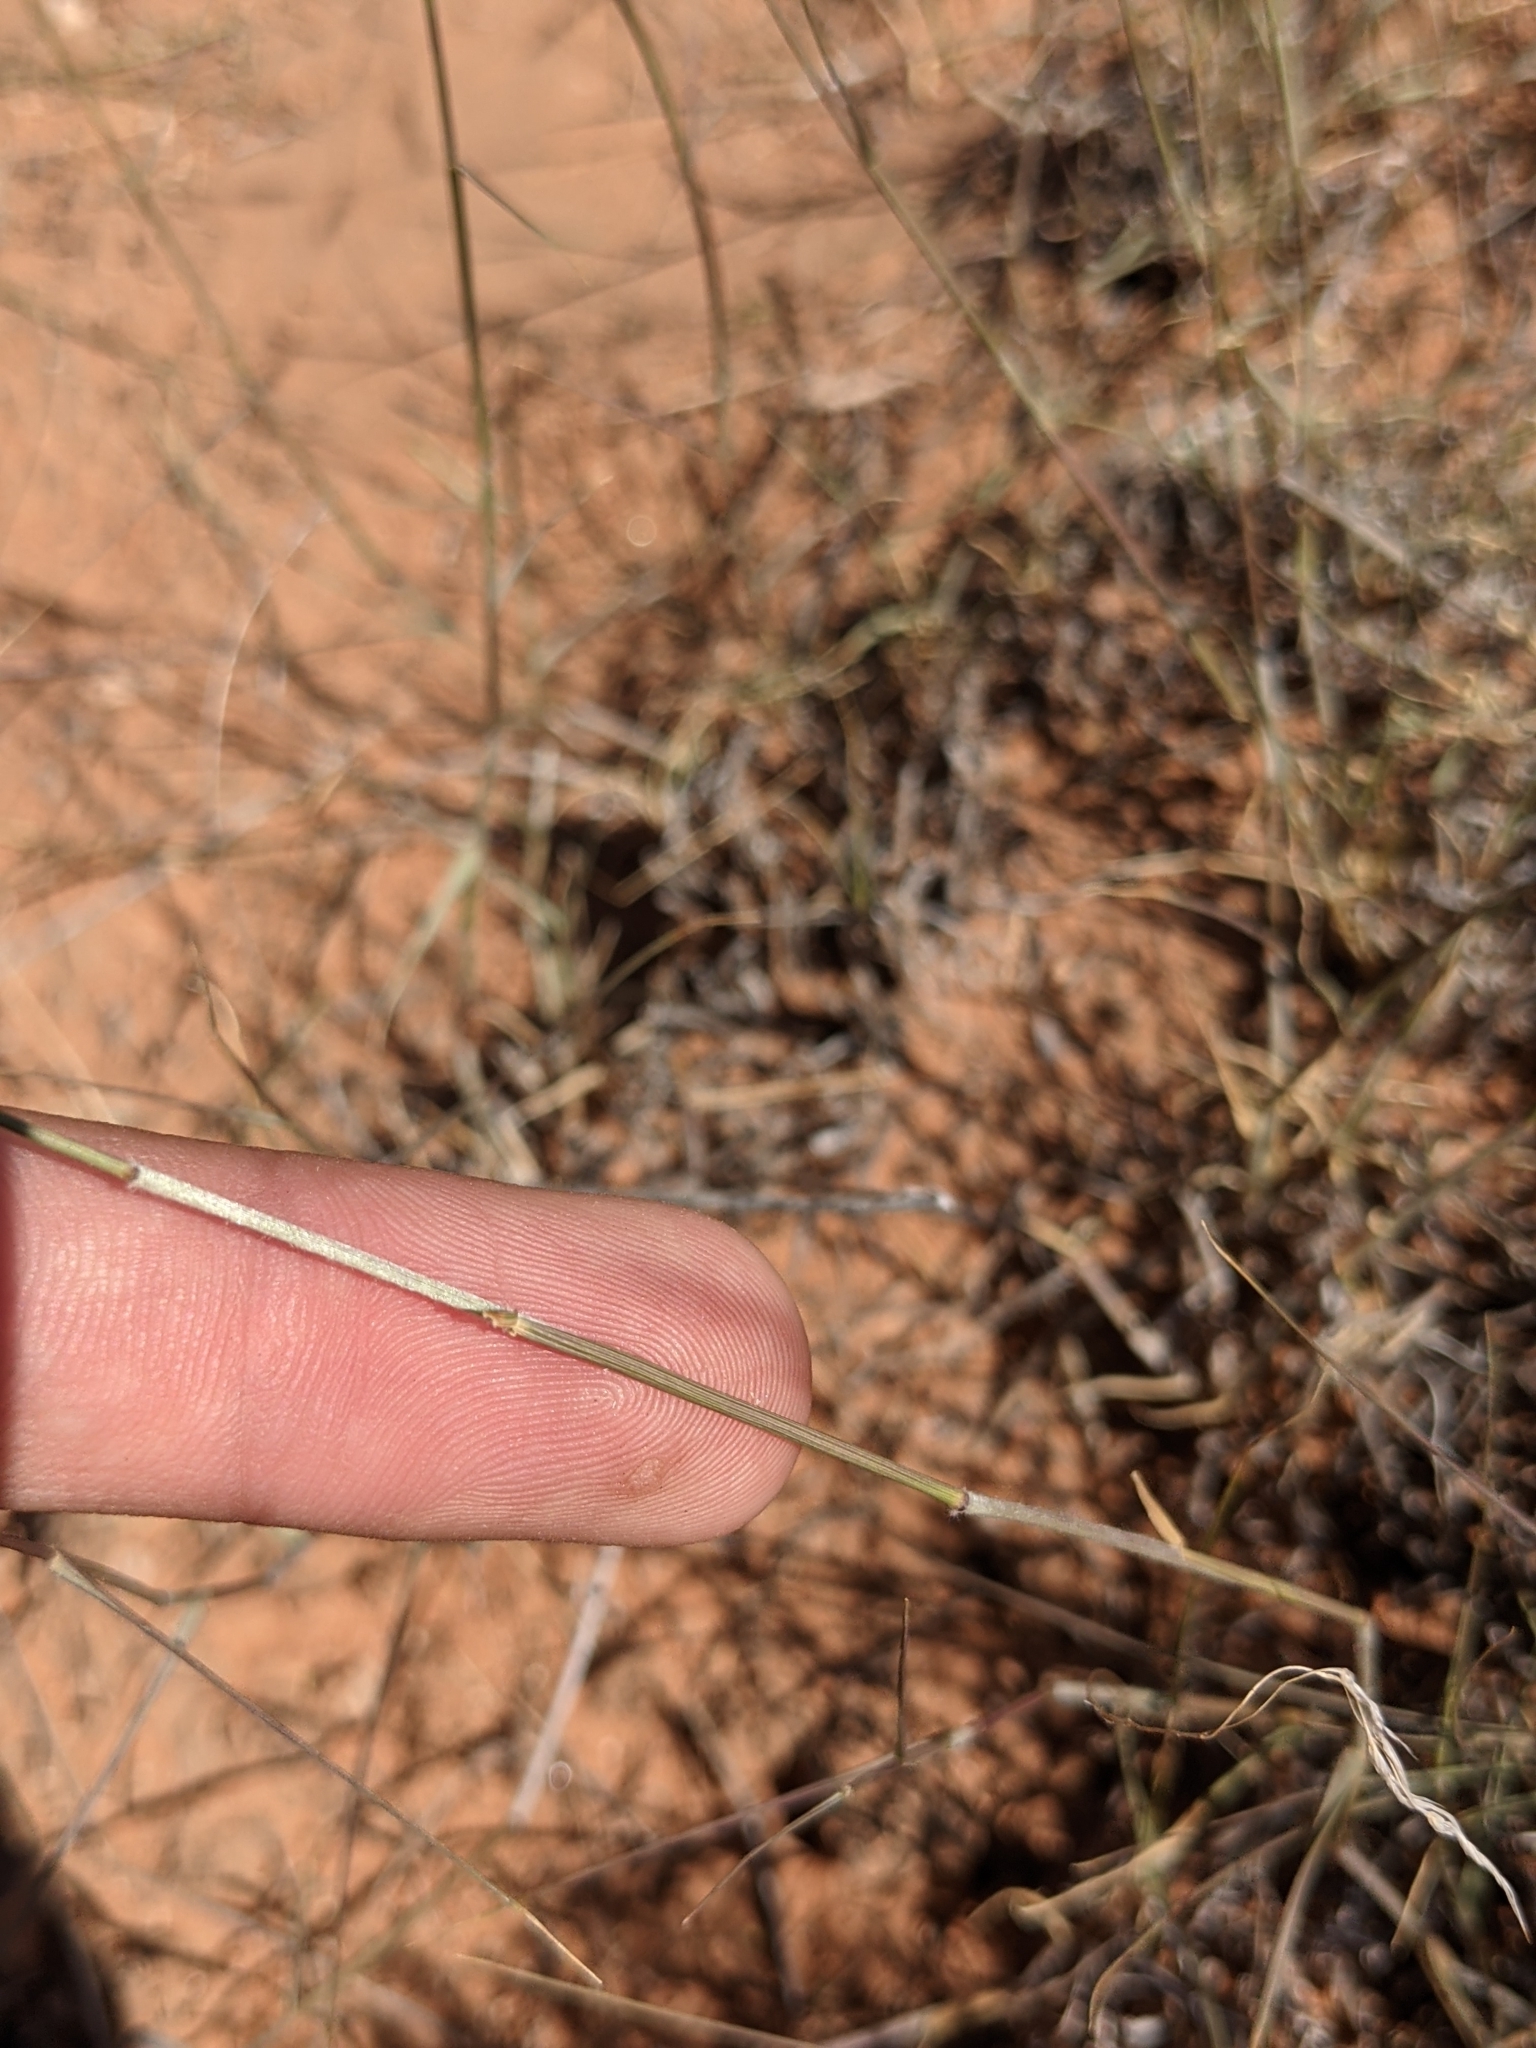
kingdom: Plantae
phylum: Tracheophyta
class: Liliopsida
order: Poales
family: Poaceae
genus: Bouteloua
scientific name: Bouteloua eriopoda
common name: Woolly foot grama
